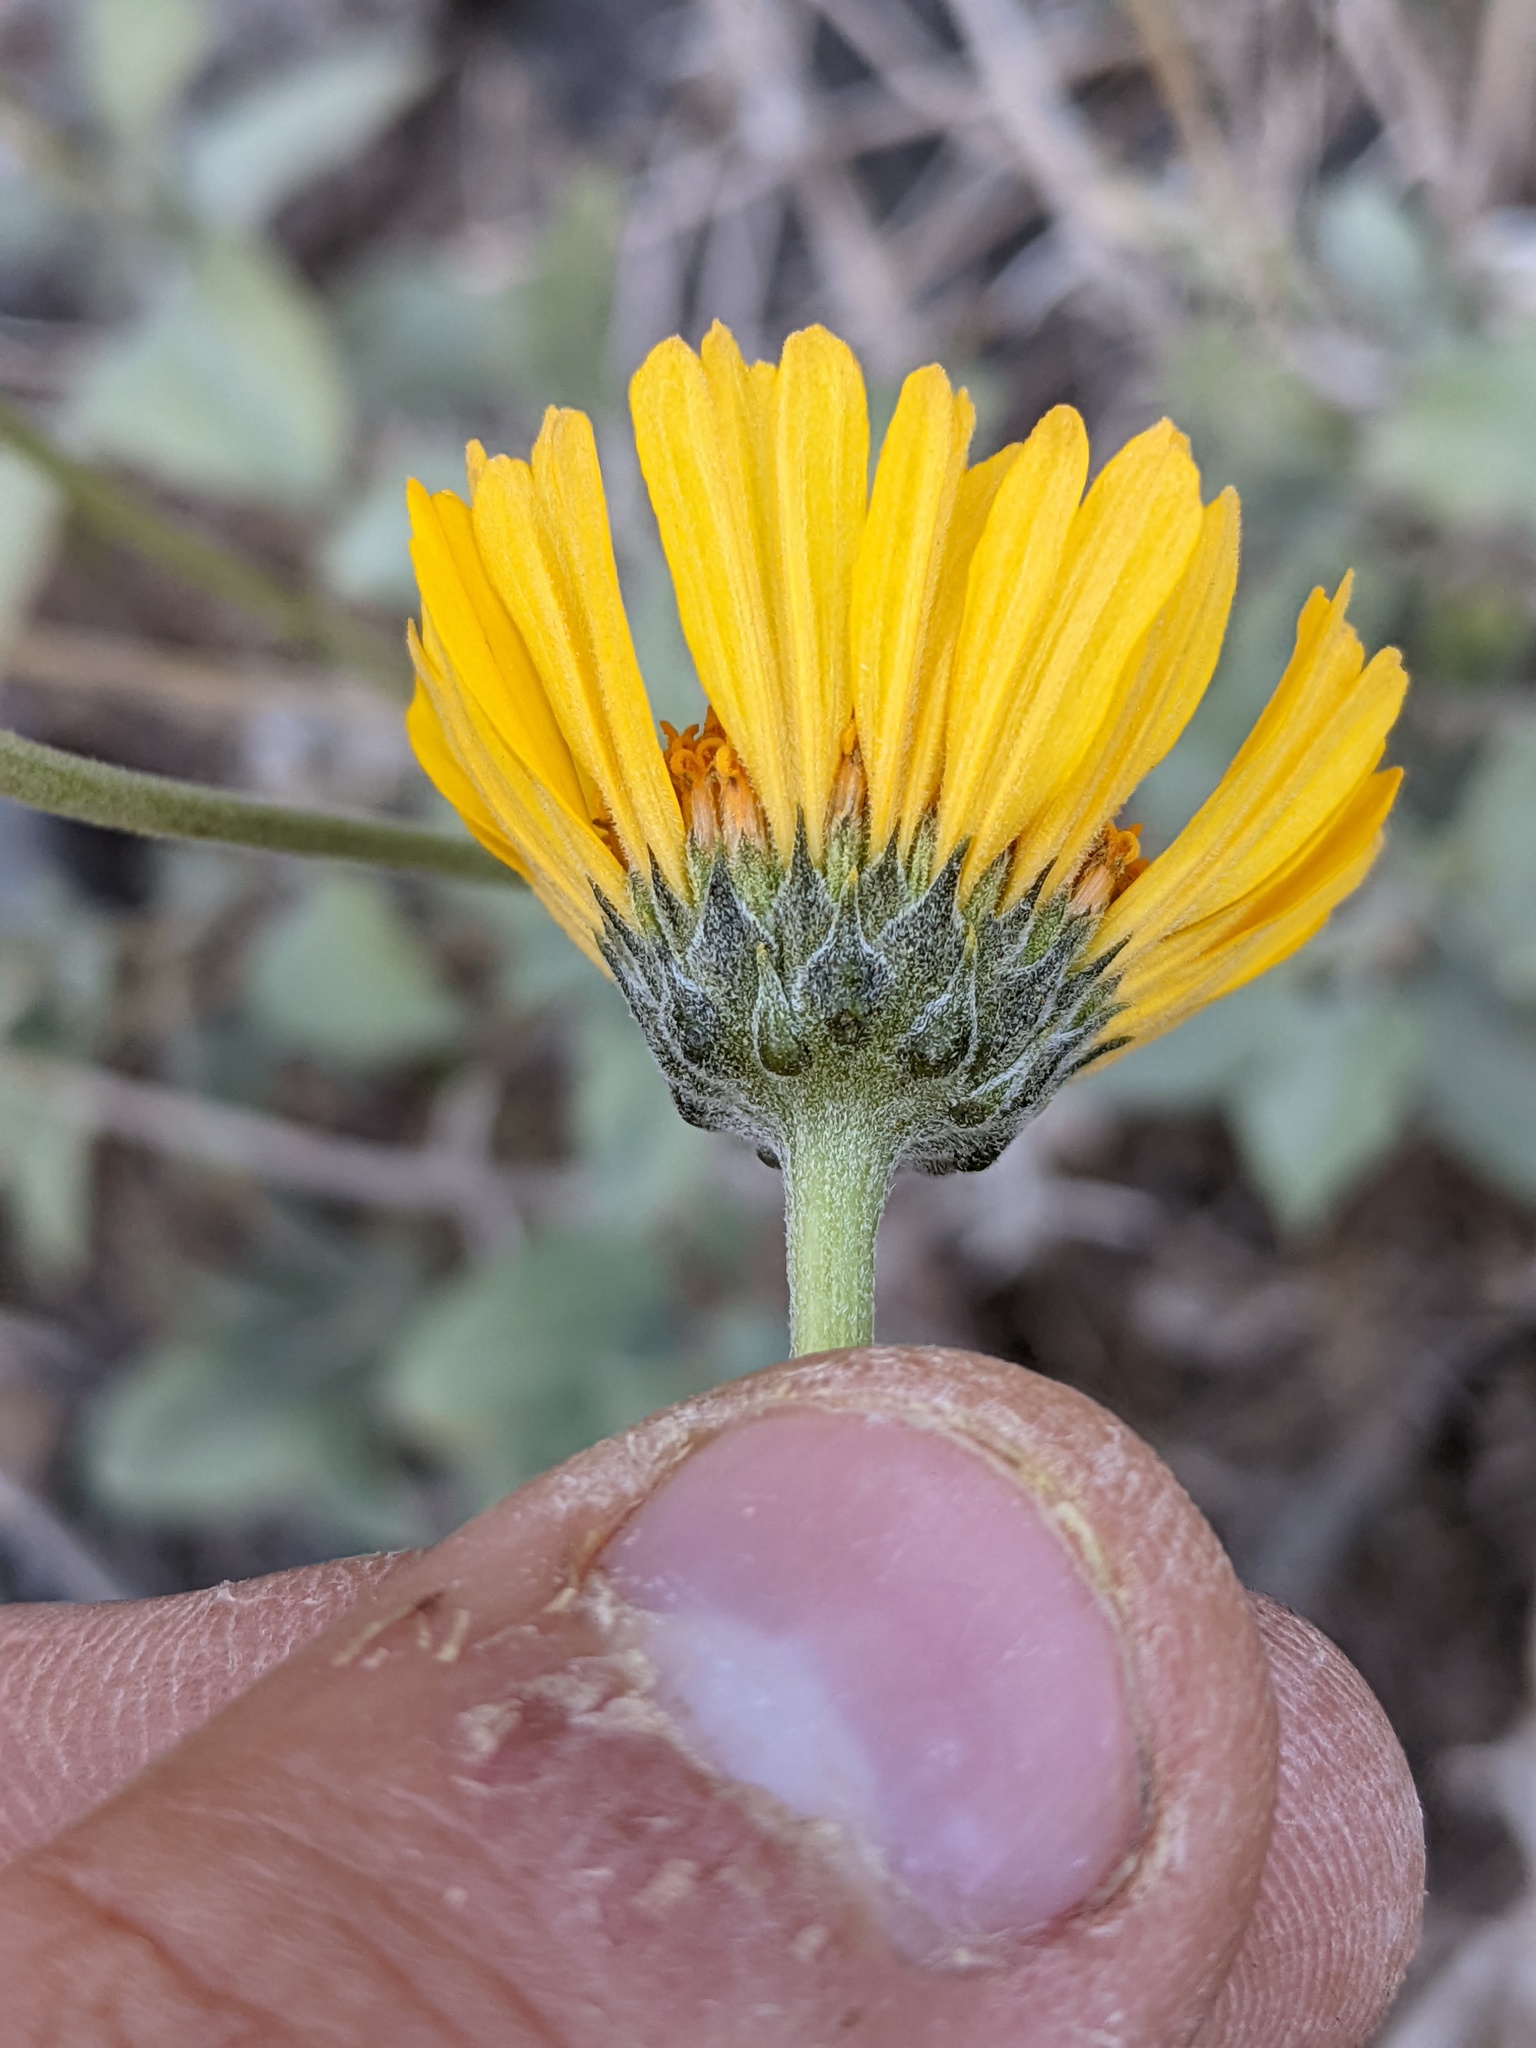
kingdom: Plantae
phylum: Tracheophyta
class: Magnoliopsida
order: Asterales
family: Asteraceae
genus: Encelia
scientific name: Encelia actoni
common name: Acton encelia
